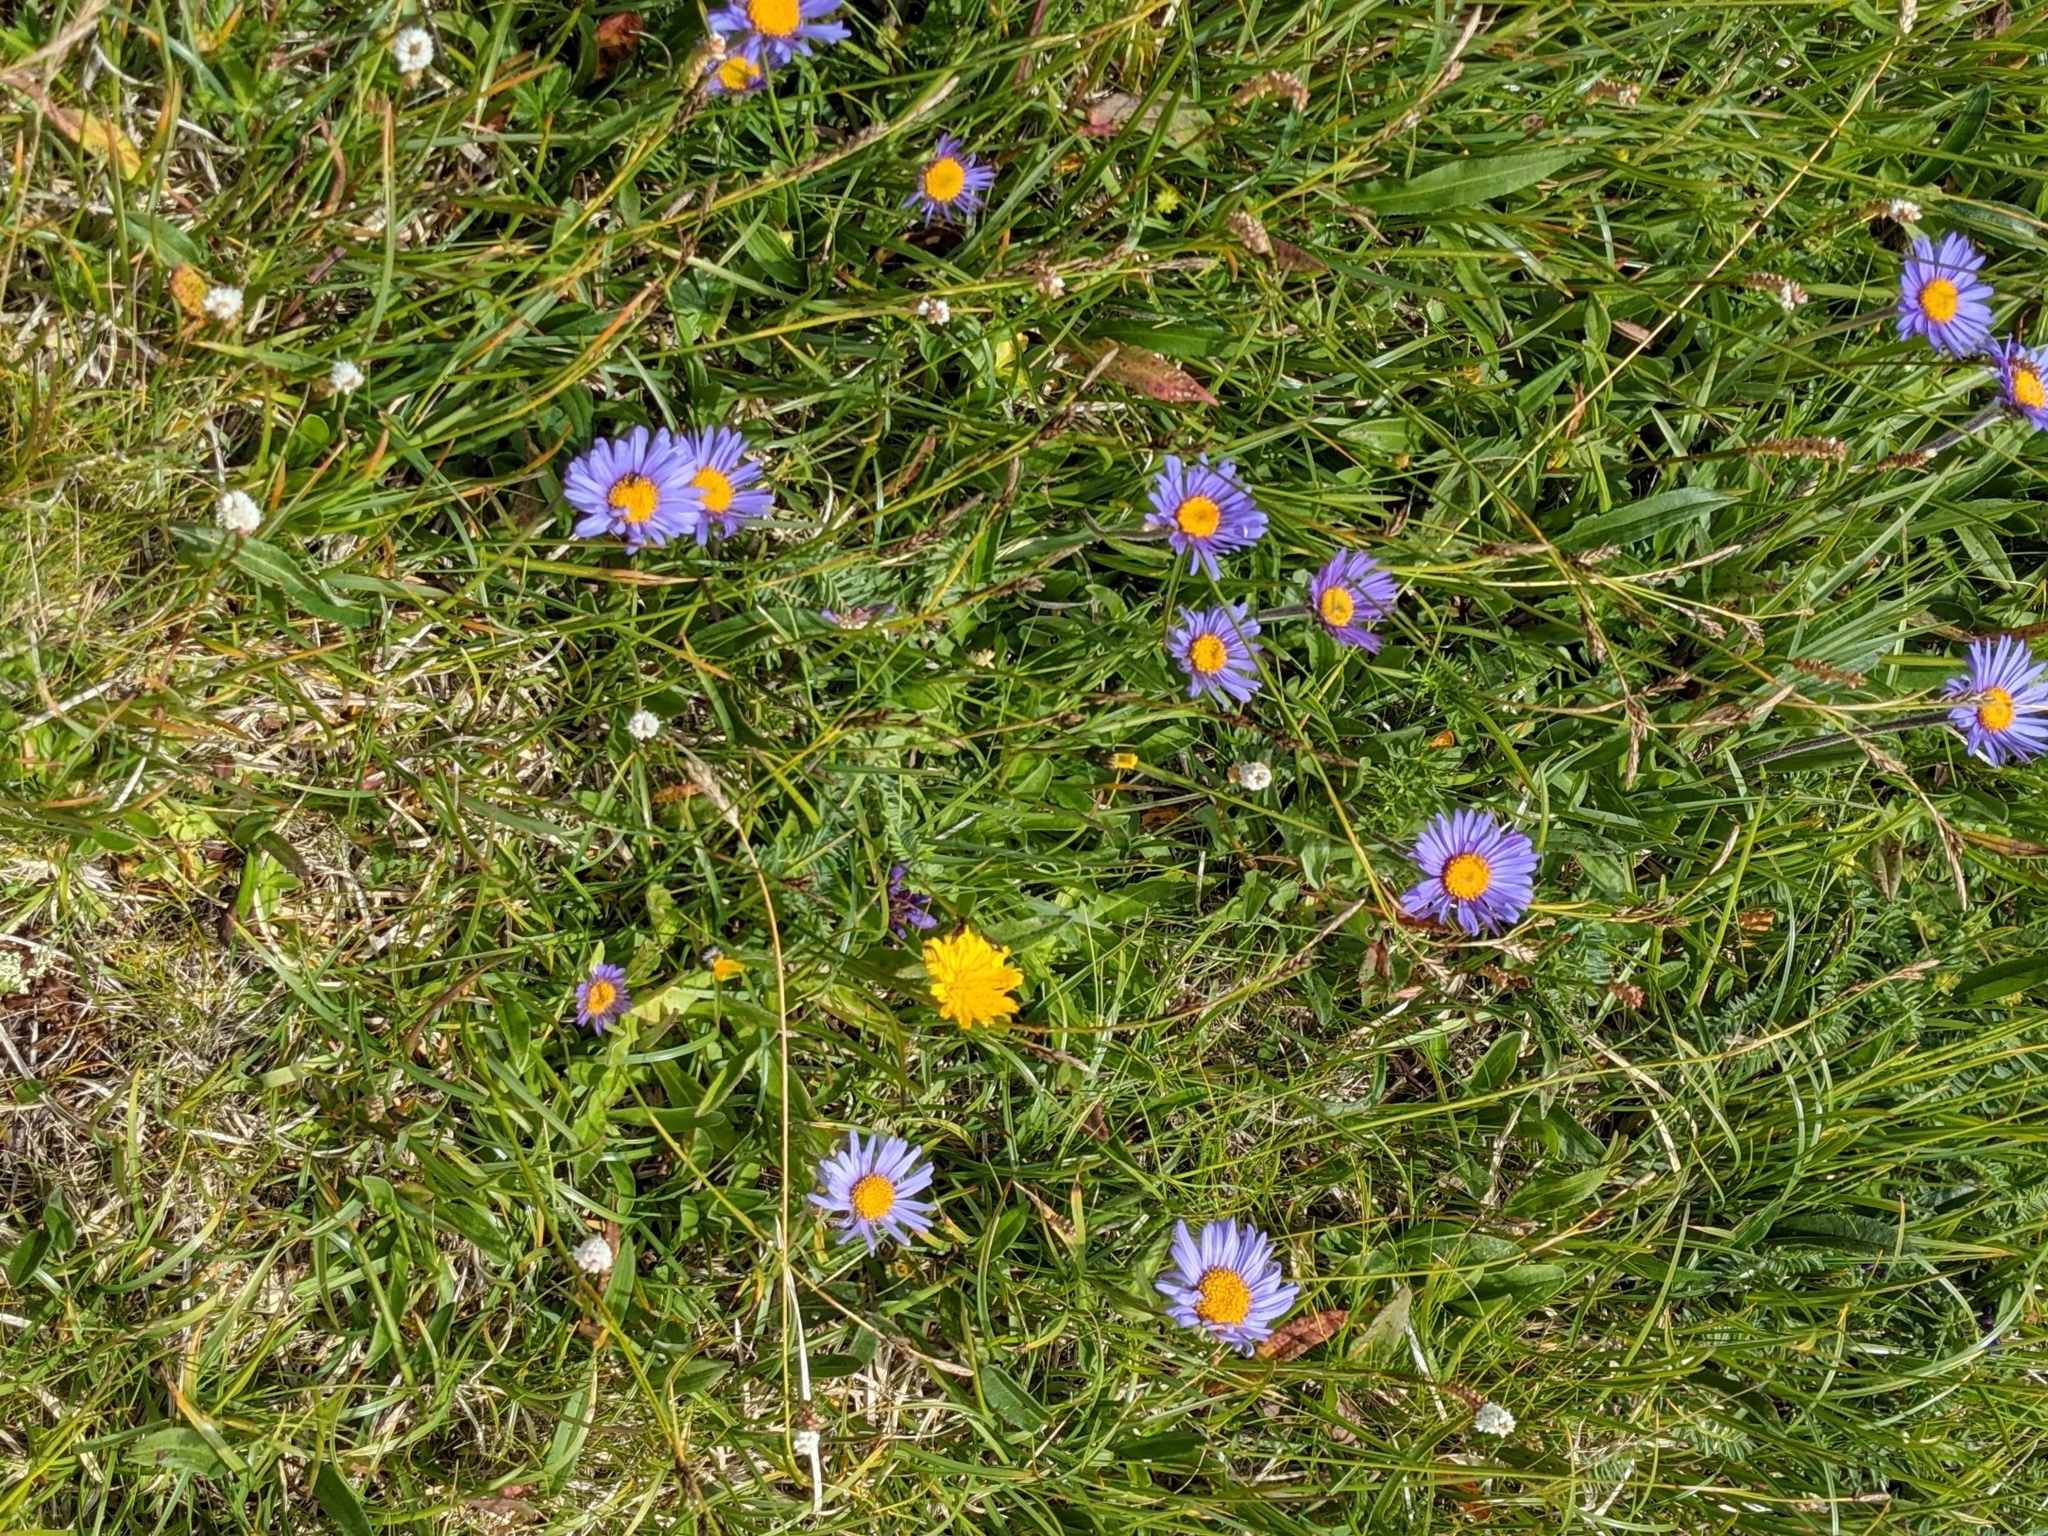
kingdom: Plantae
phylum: Tracheophyta
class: Magnoliopsida
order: Asterales
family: Asteraceae
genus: Aster
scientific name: Aster alpinus
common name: Alpine aster
